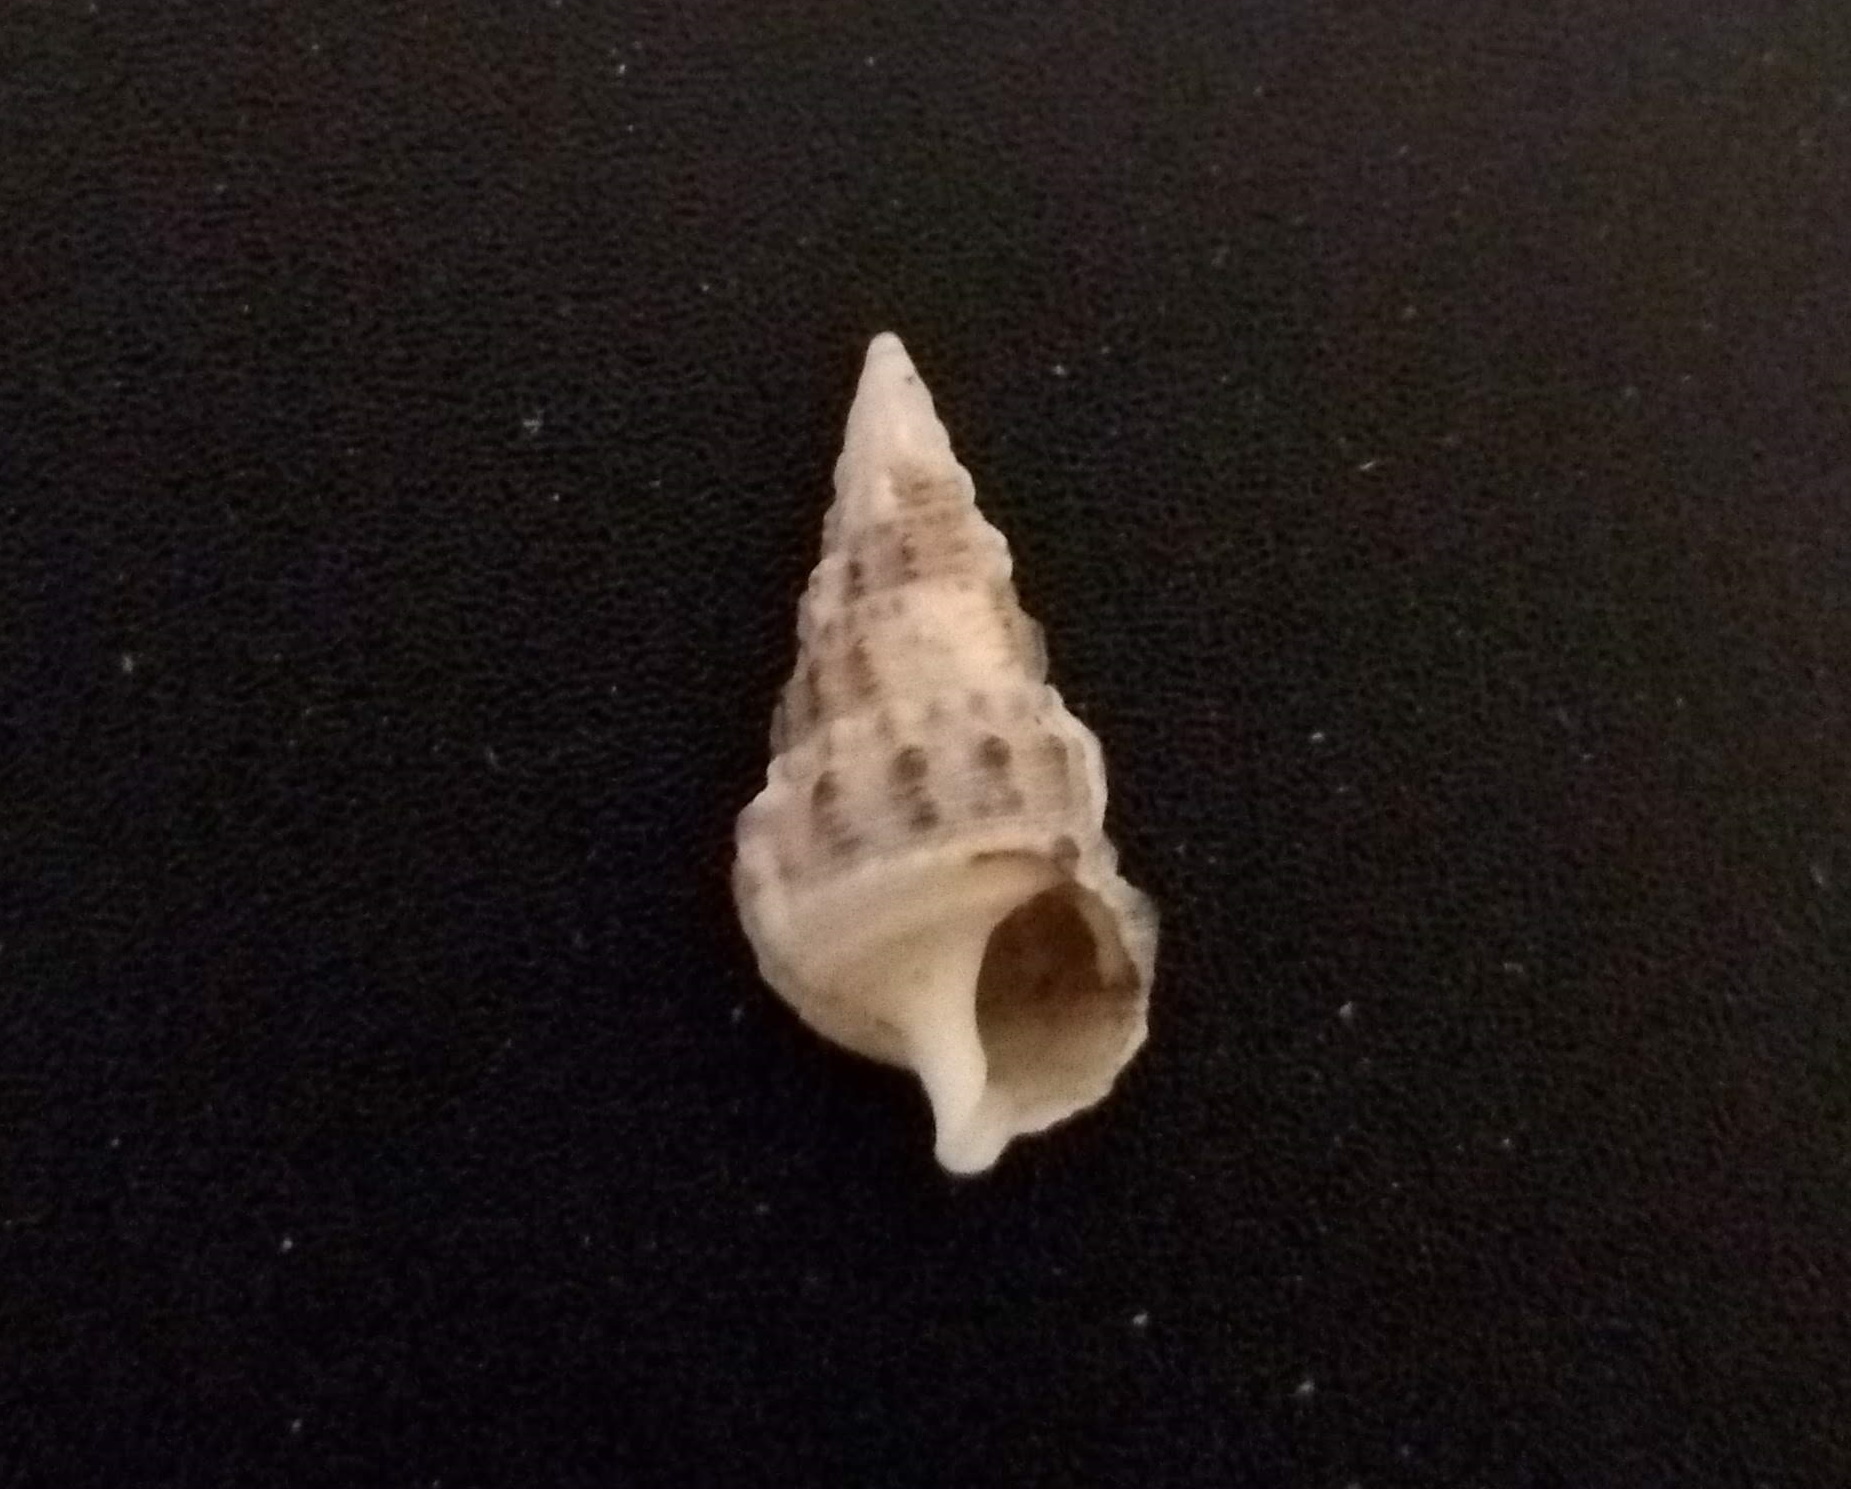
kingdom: Animalia
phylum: Mollusca
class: Gastropoda
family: Cerithiidae
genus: Cerithium
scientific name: Cerithium atratum
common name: Dark cerith
